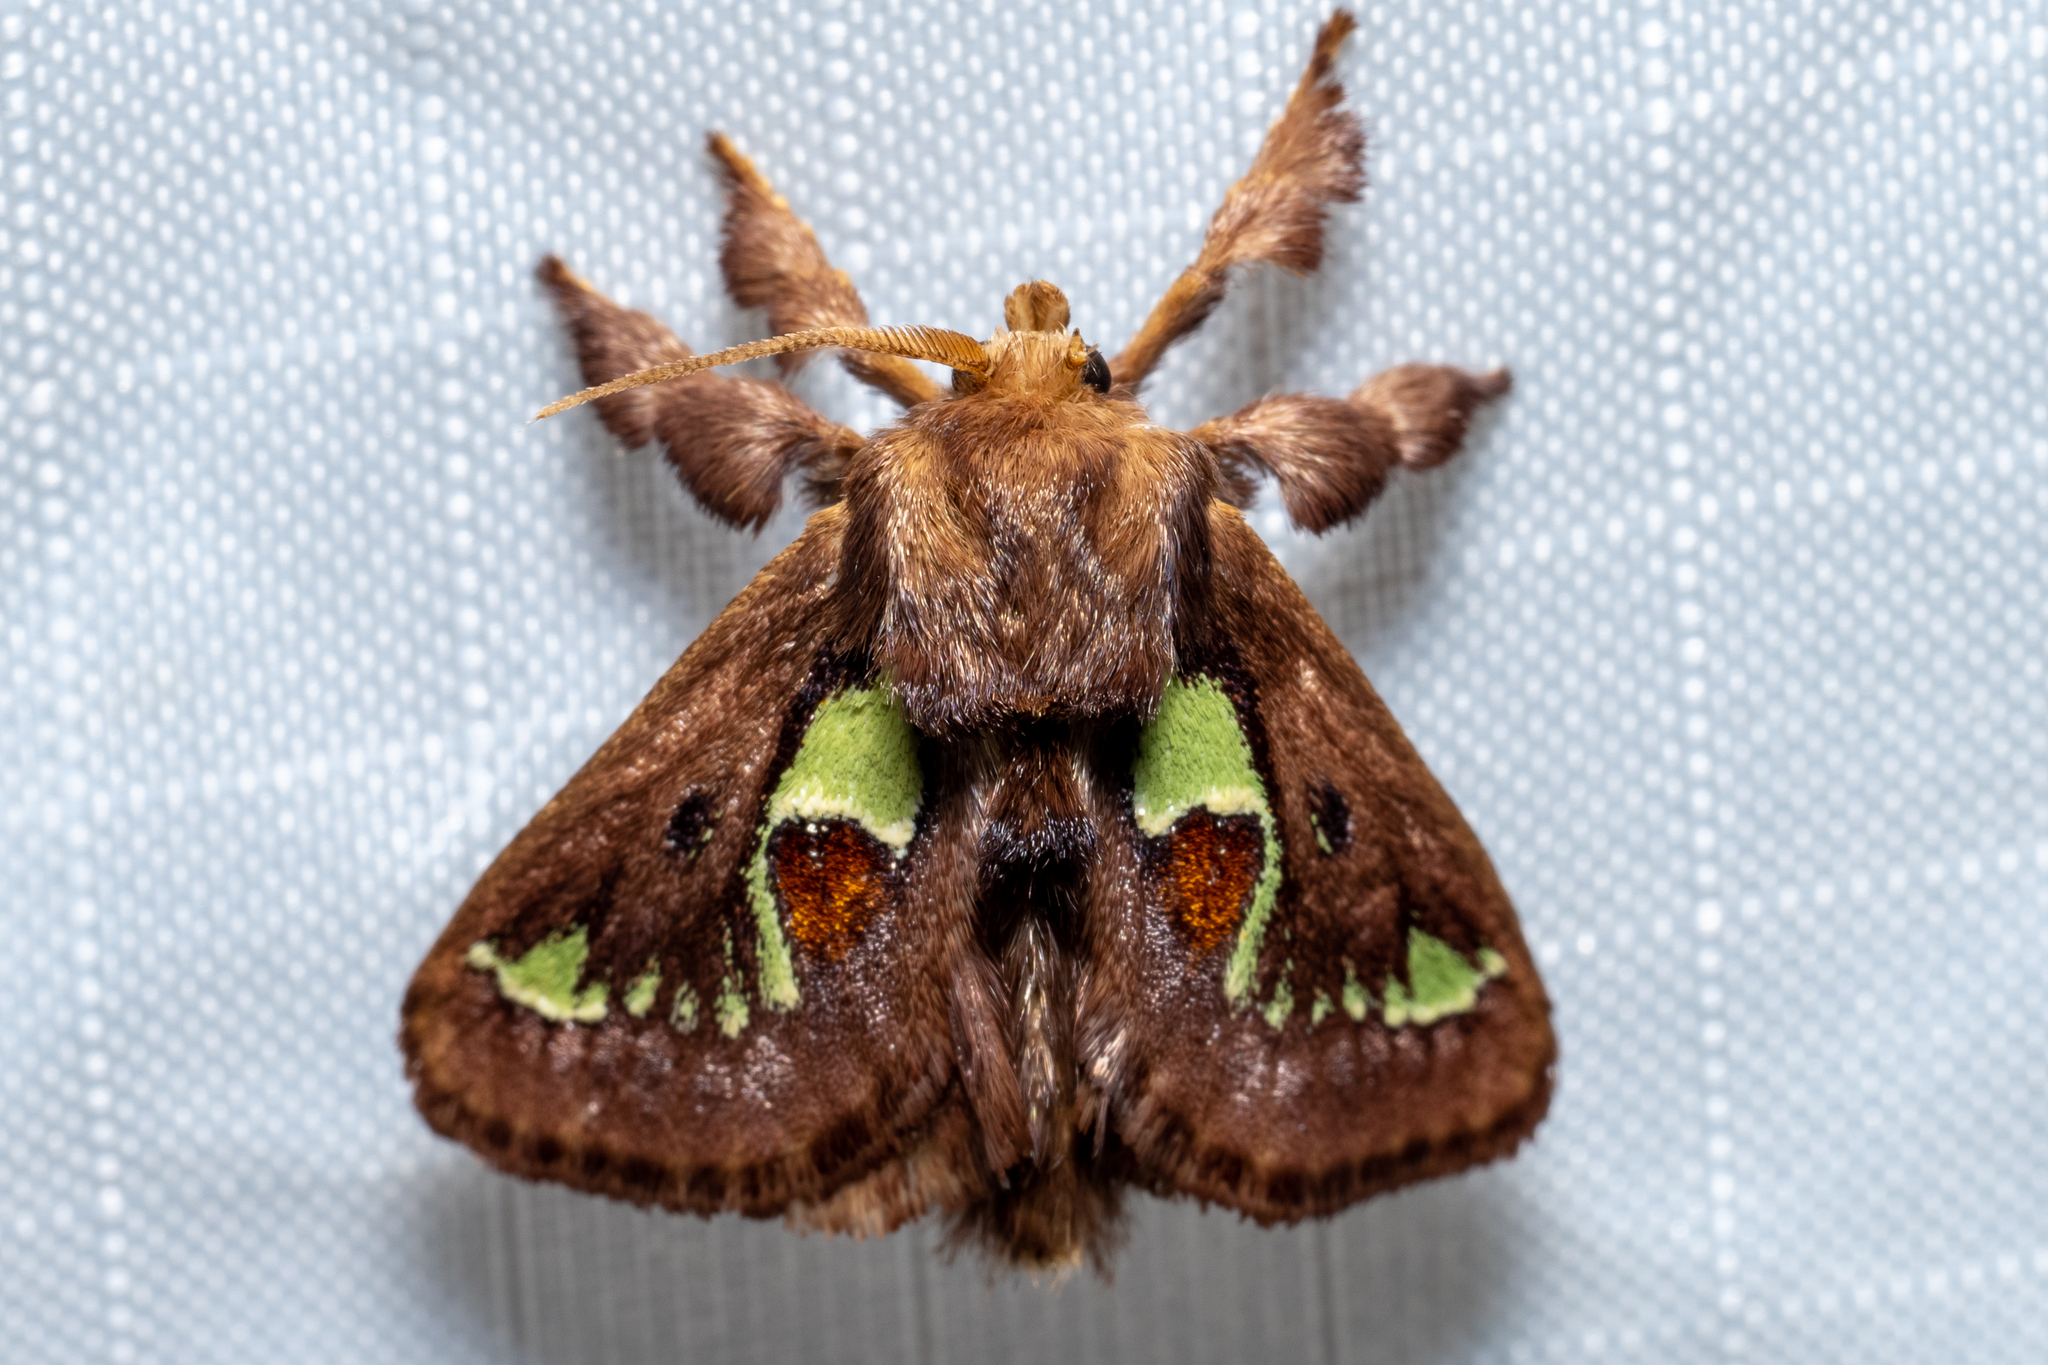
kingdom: Animalia
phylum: Arthropoda
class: Insecta
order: Lepidoptera
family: Limacodidae
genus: Euclea
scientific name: Euclea delphinii
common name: Spiny oak-slug moth
